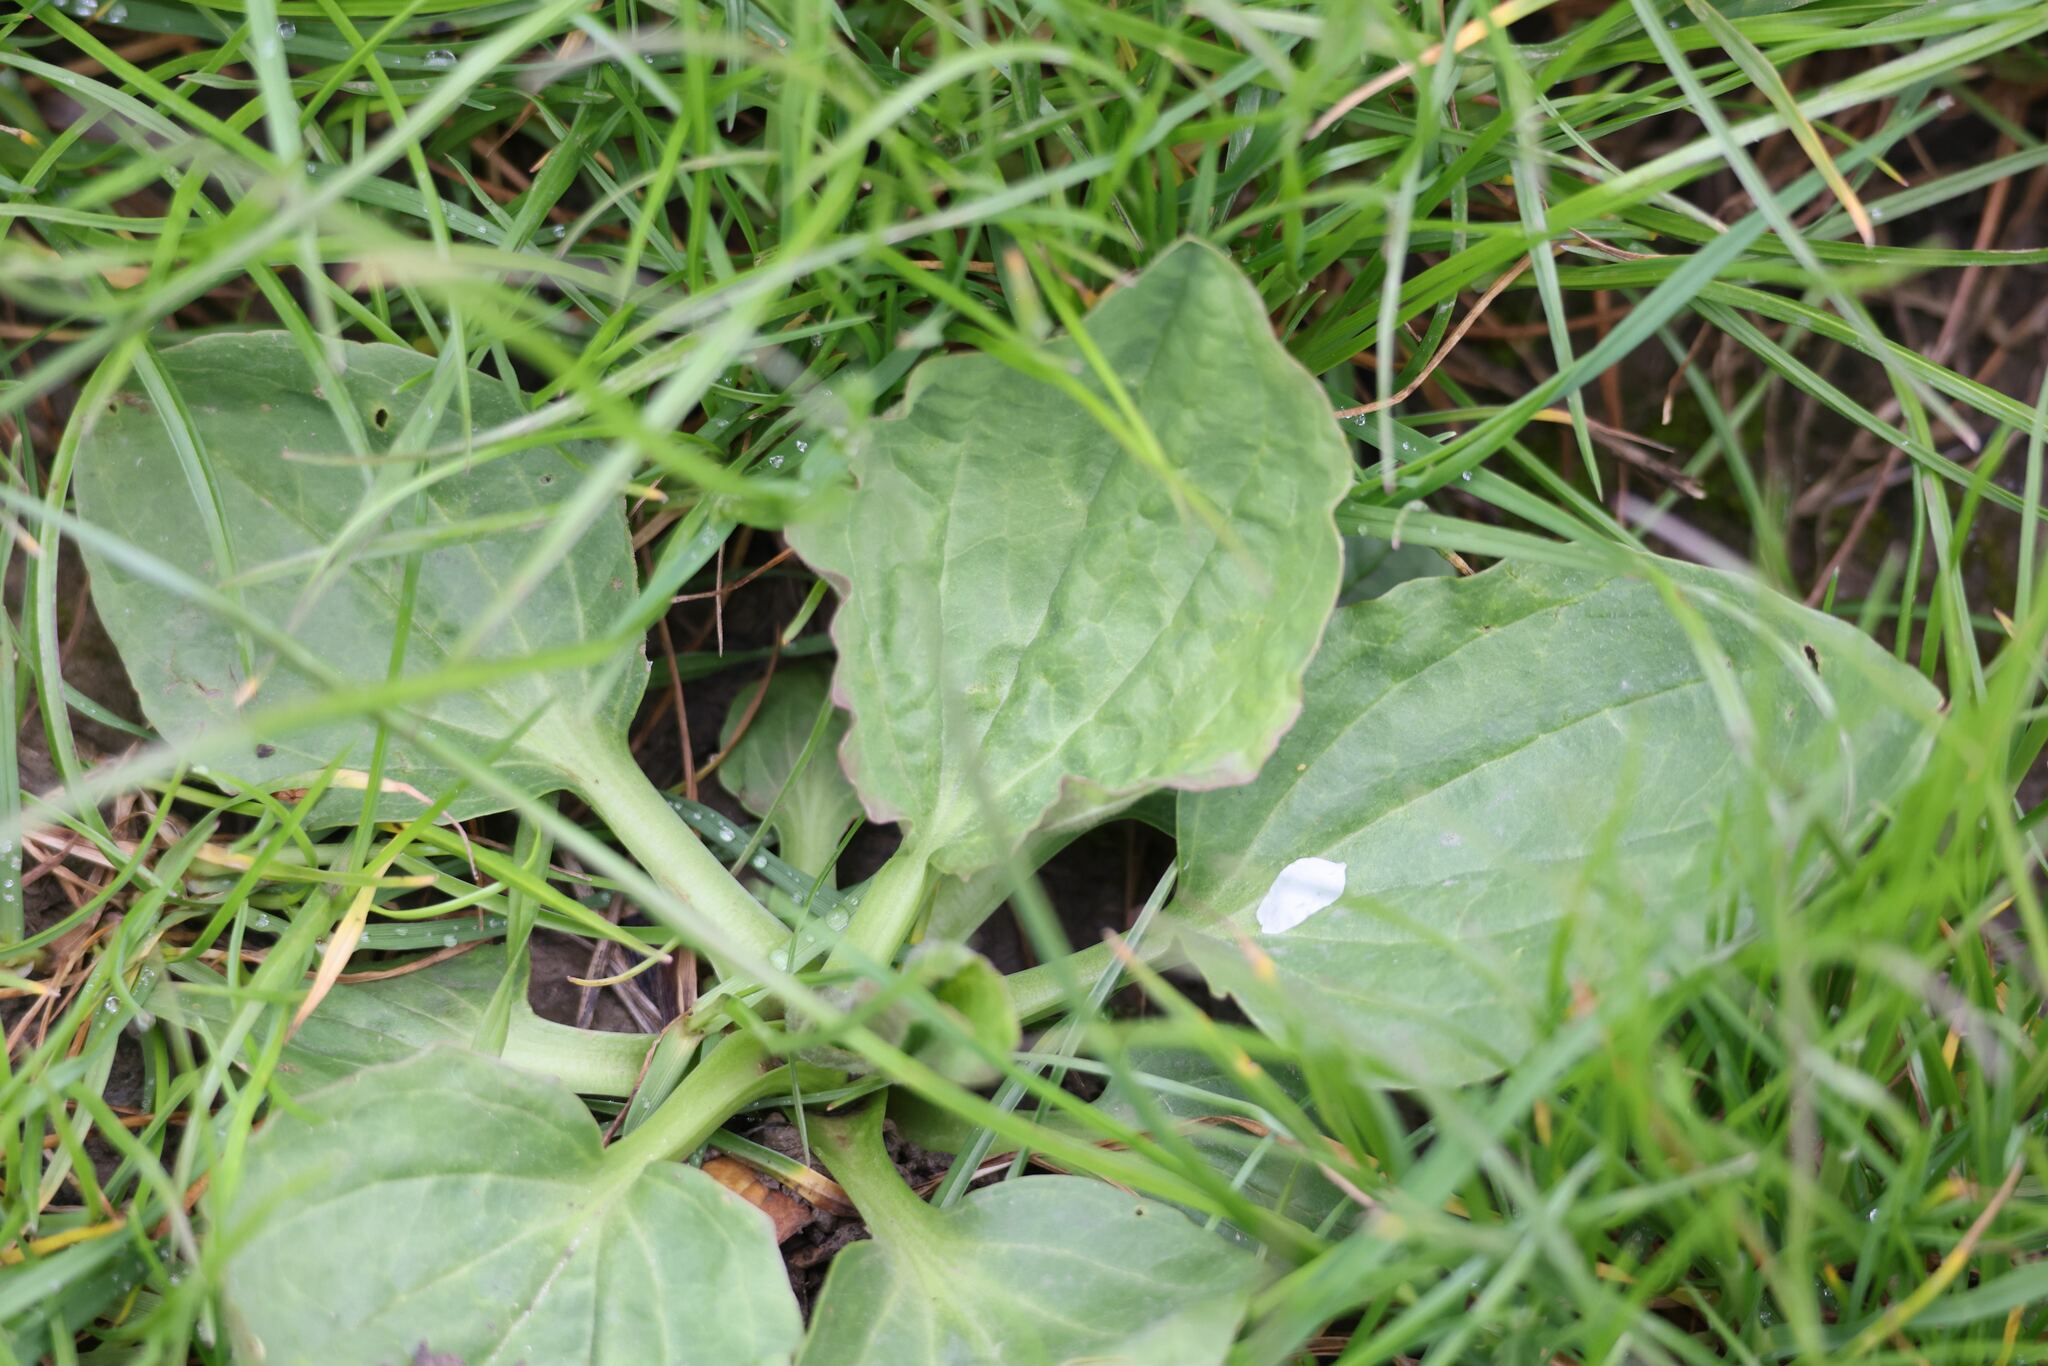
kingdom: Plantae
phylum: Tracheophyta
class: Magnoliopsida
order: Lamiales
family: Plantaginaceae
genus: Plantago
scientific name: Plantago major
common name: Common plantain
